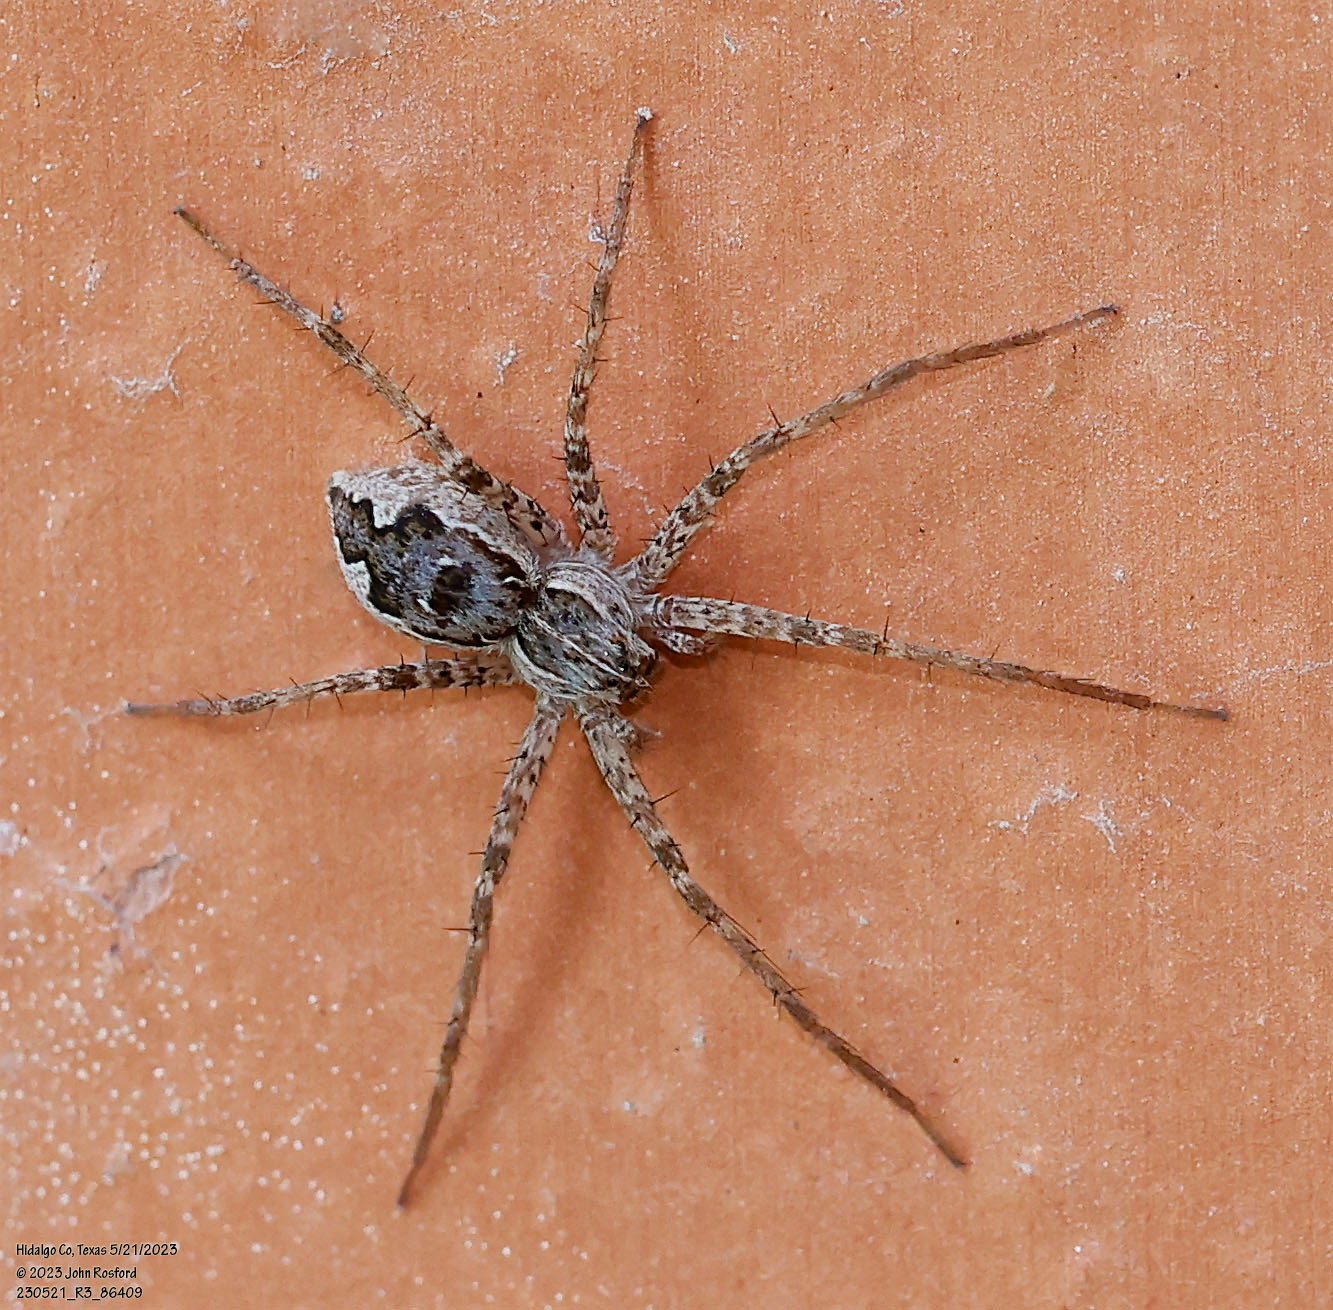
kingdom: Animalia
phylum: Arthropoda
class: Arachnida
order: Araneae
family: Pisauridae
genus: Tinus
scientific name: Tinus peregrinus
